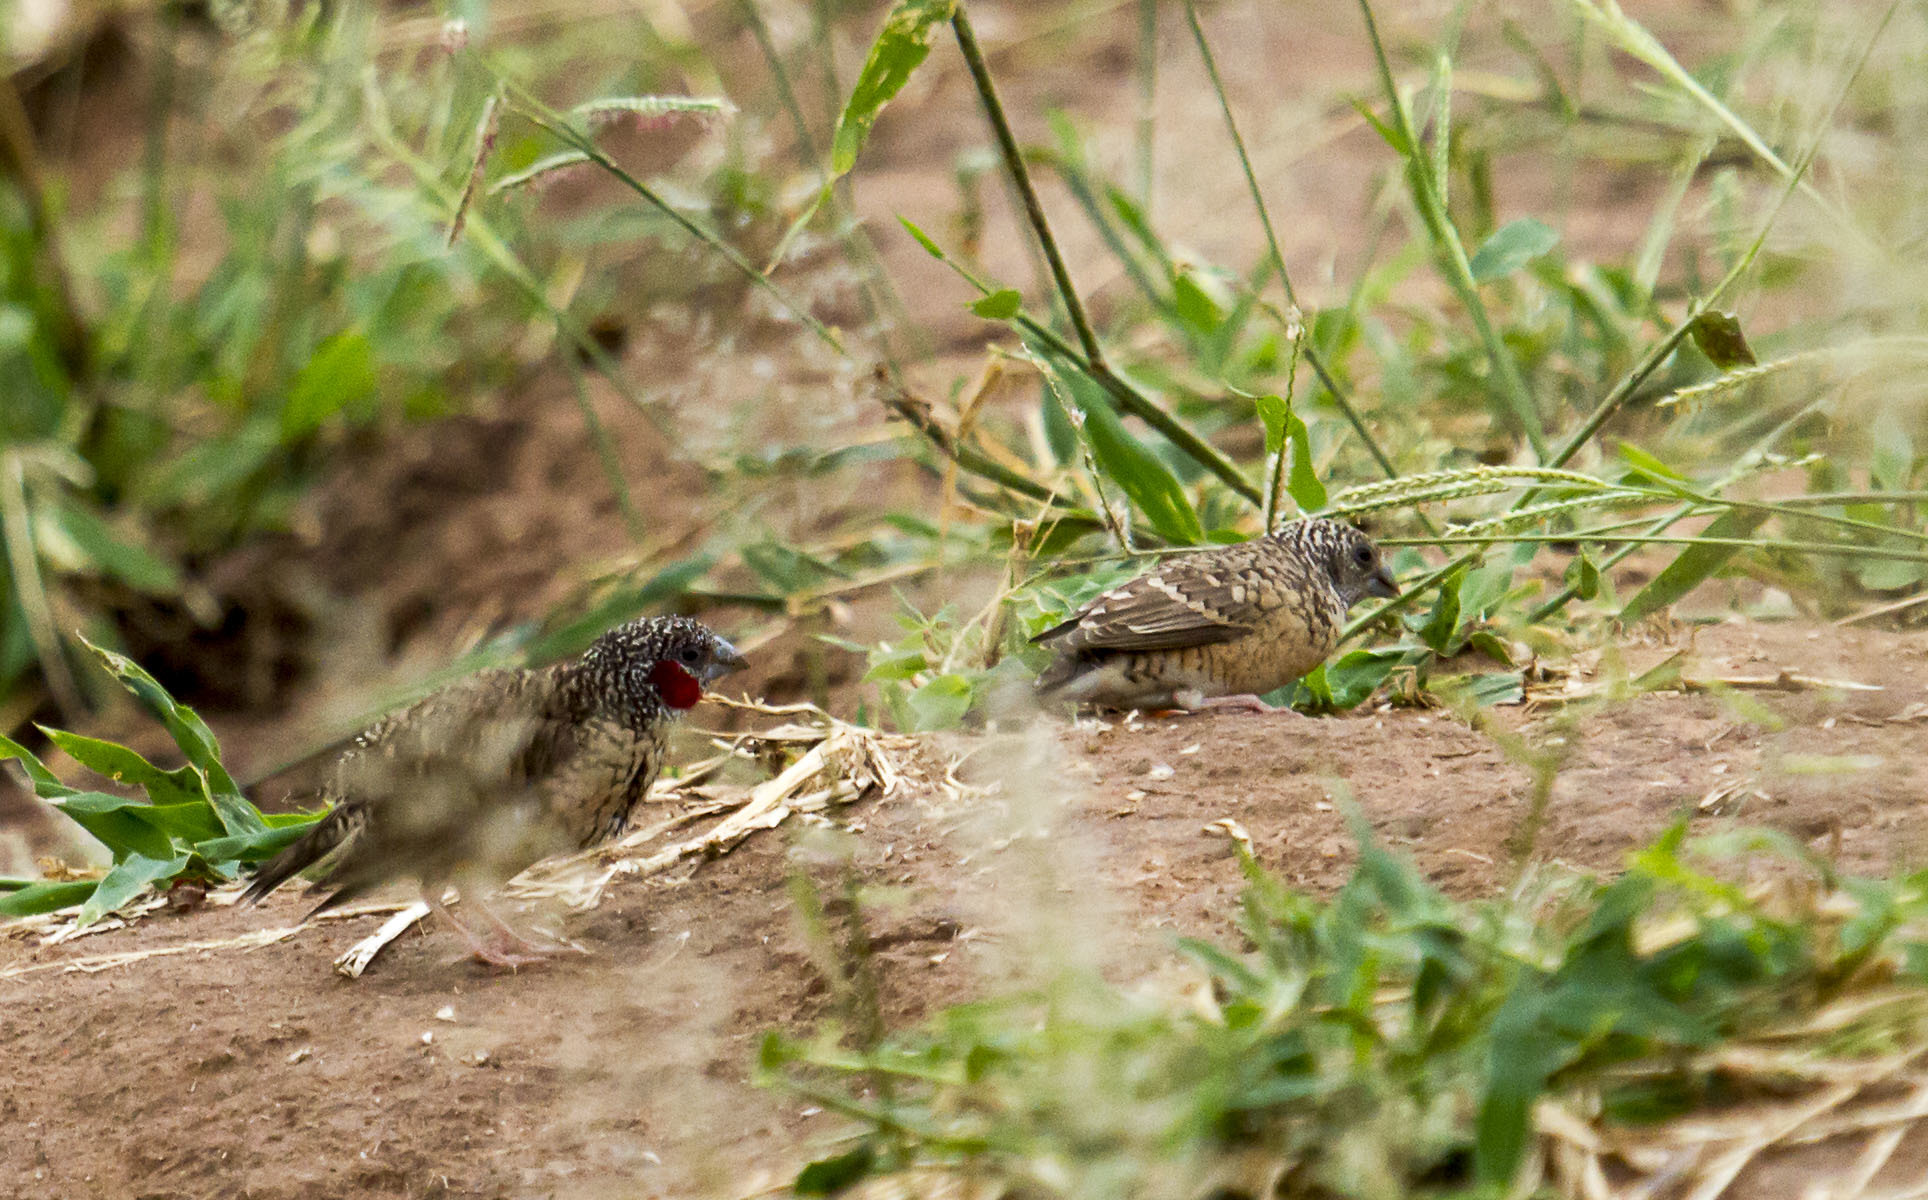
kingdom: Animalia
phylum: Chordata
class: Aves
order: Passeriformes
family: Estrildidae
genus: Amadina
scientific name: Amadina fasciata
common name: Cut-throat finch
